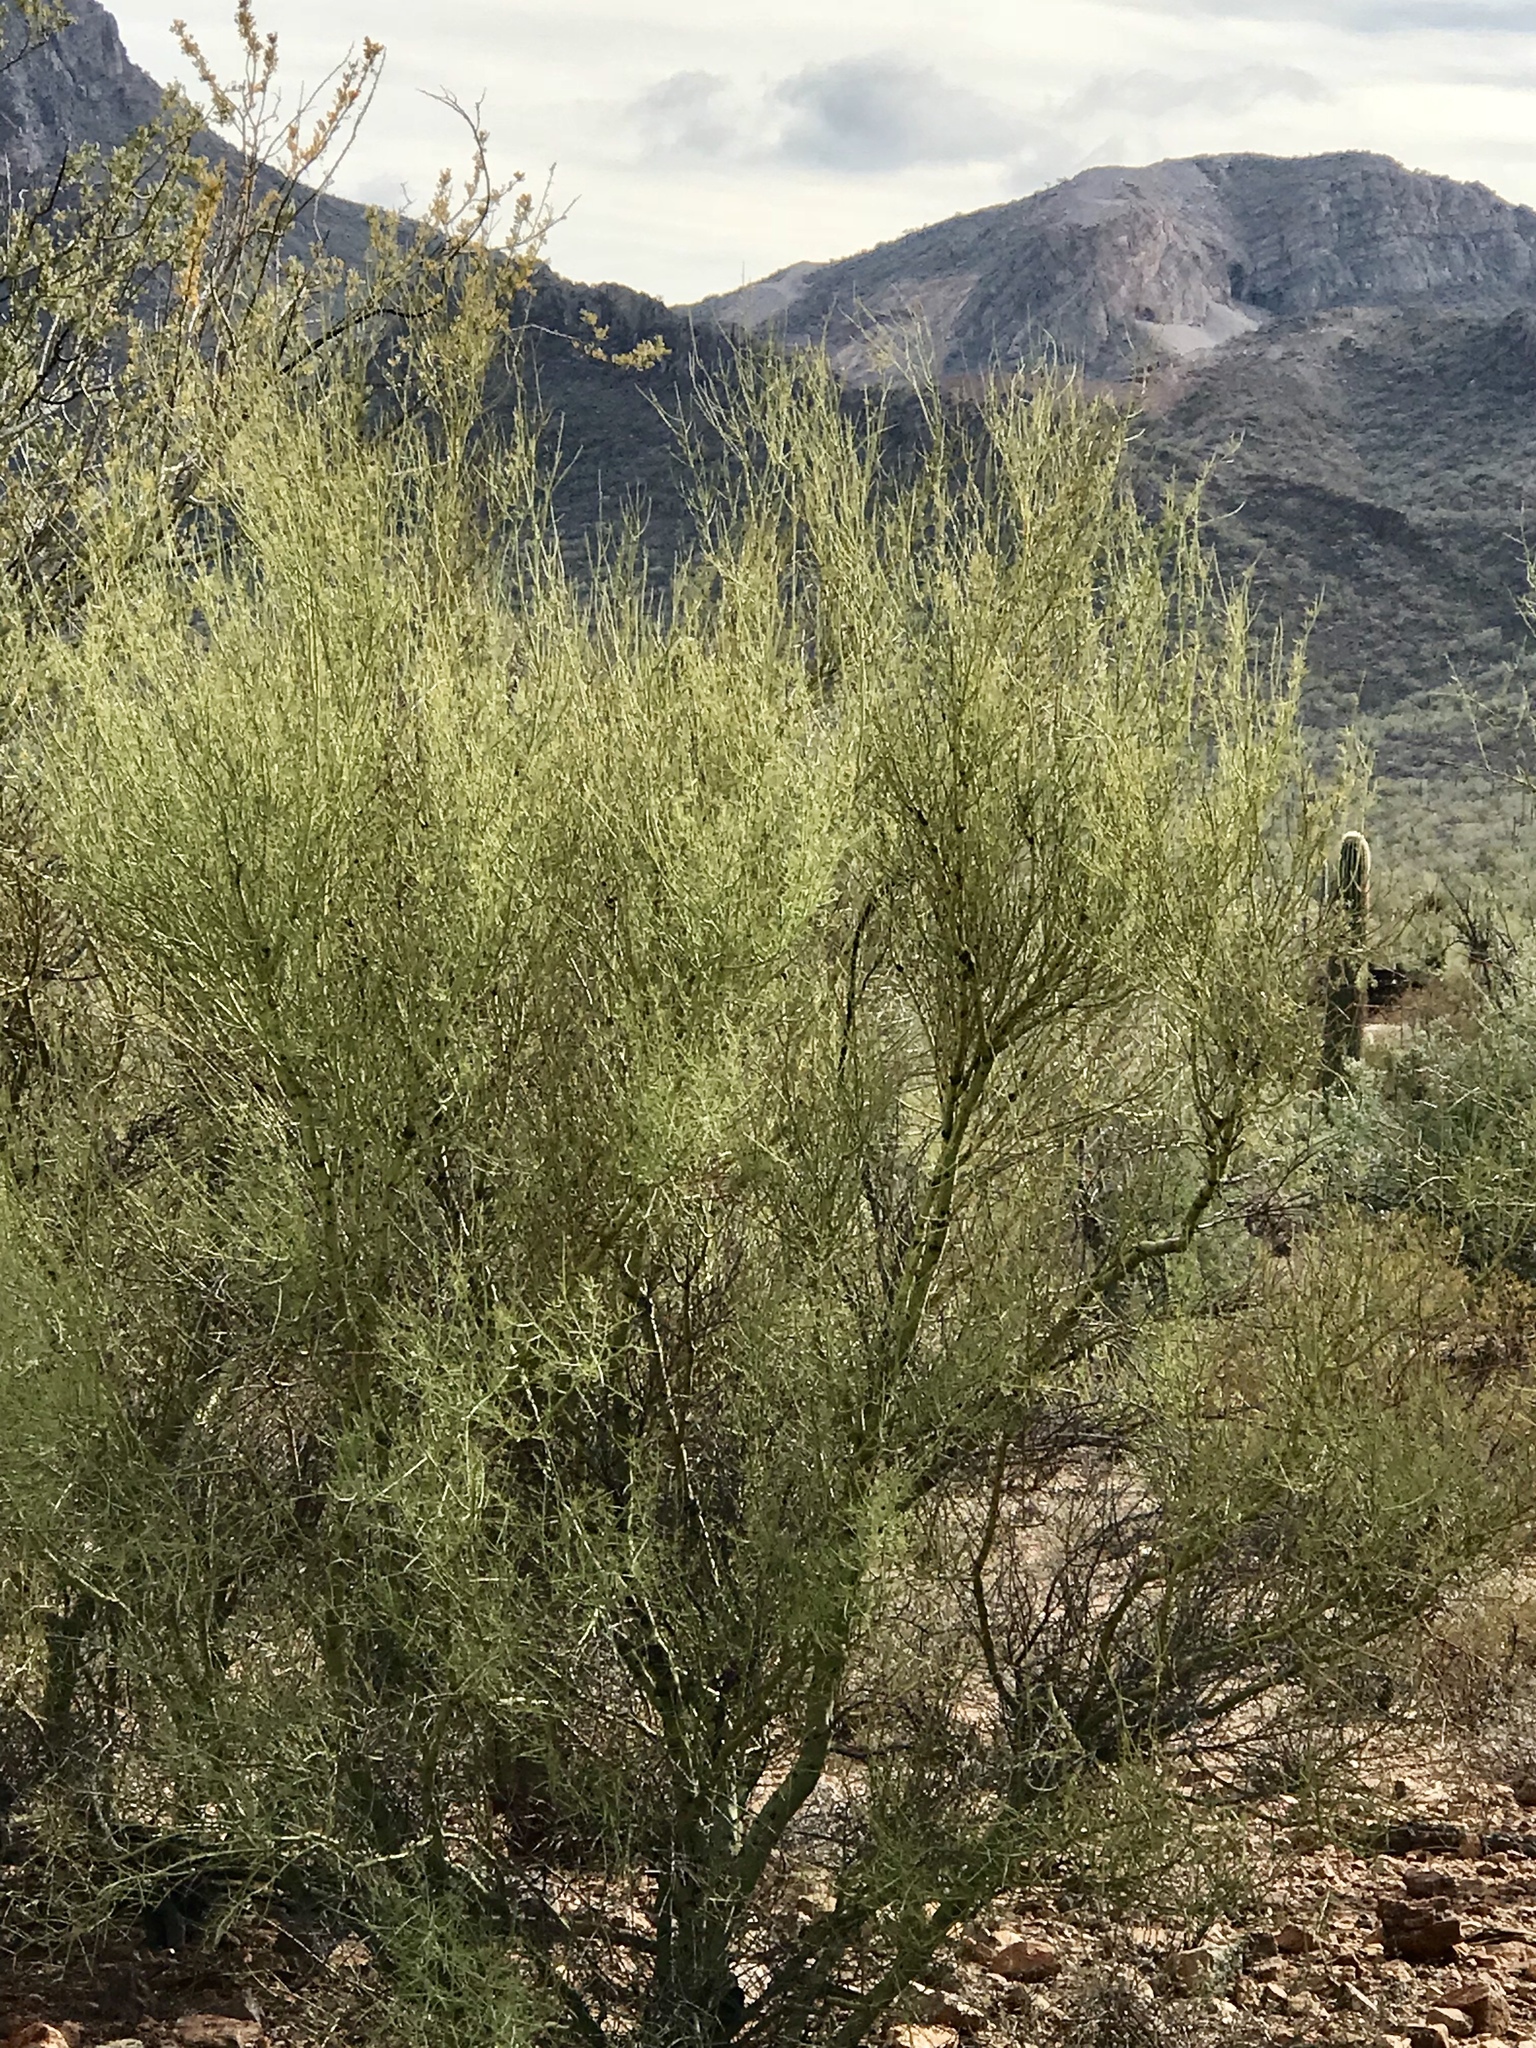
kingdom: Plantae
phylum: Tracheophyta
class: Magnoliopsida
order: Fabales
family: Fabaceae
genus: Parkinsonia
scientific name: Parkinsonia microphylla
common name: Yellow paloverde
